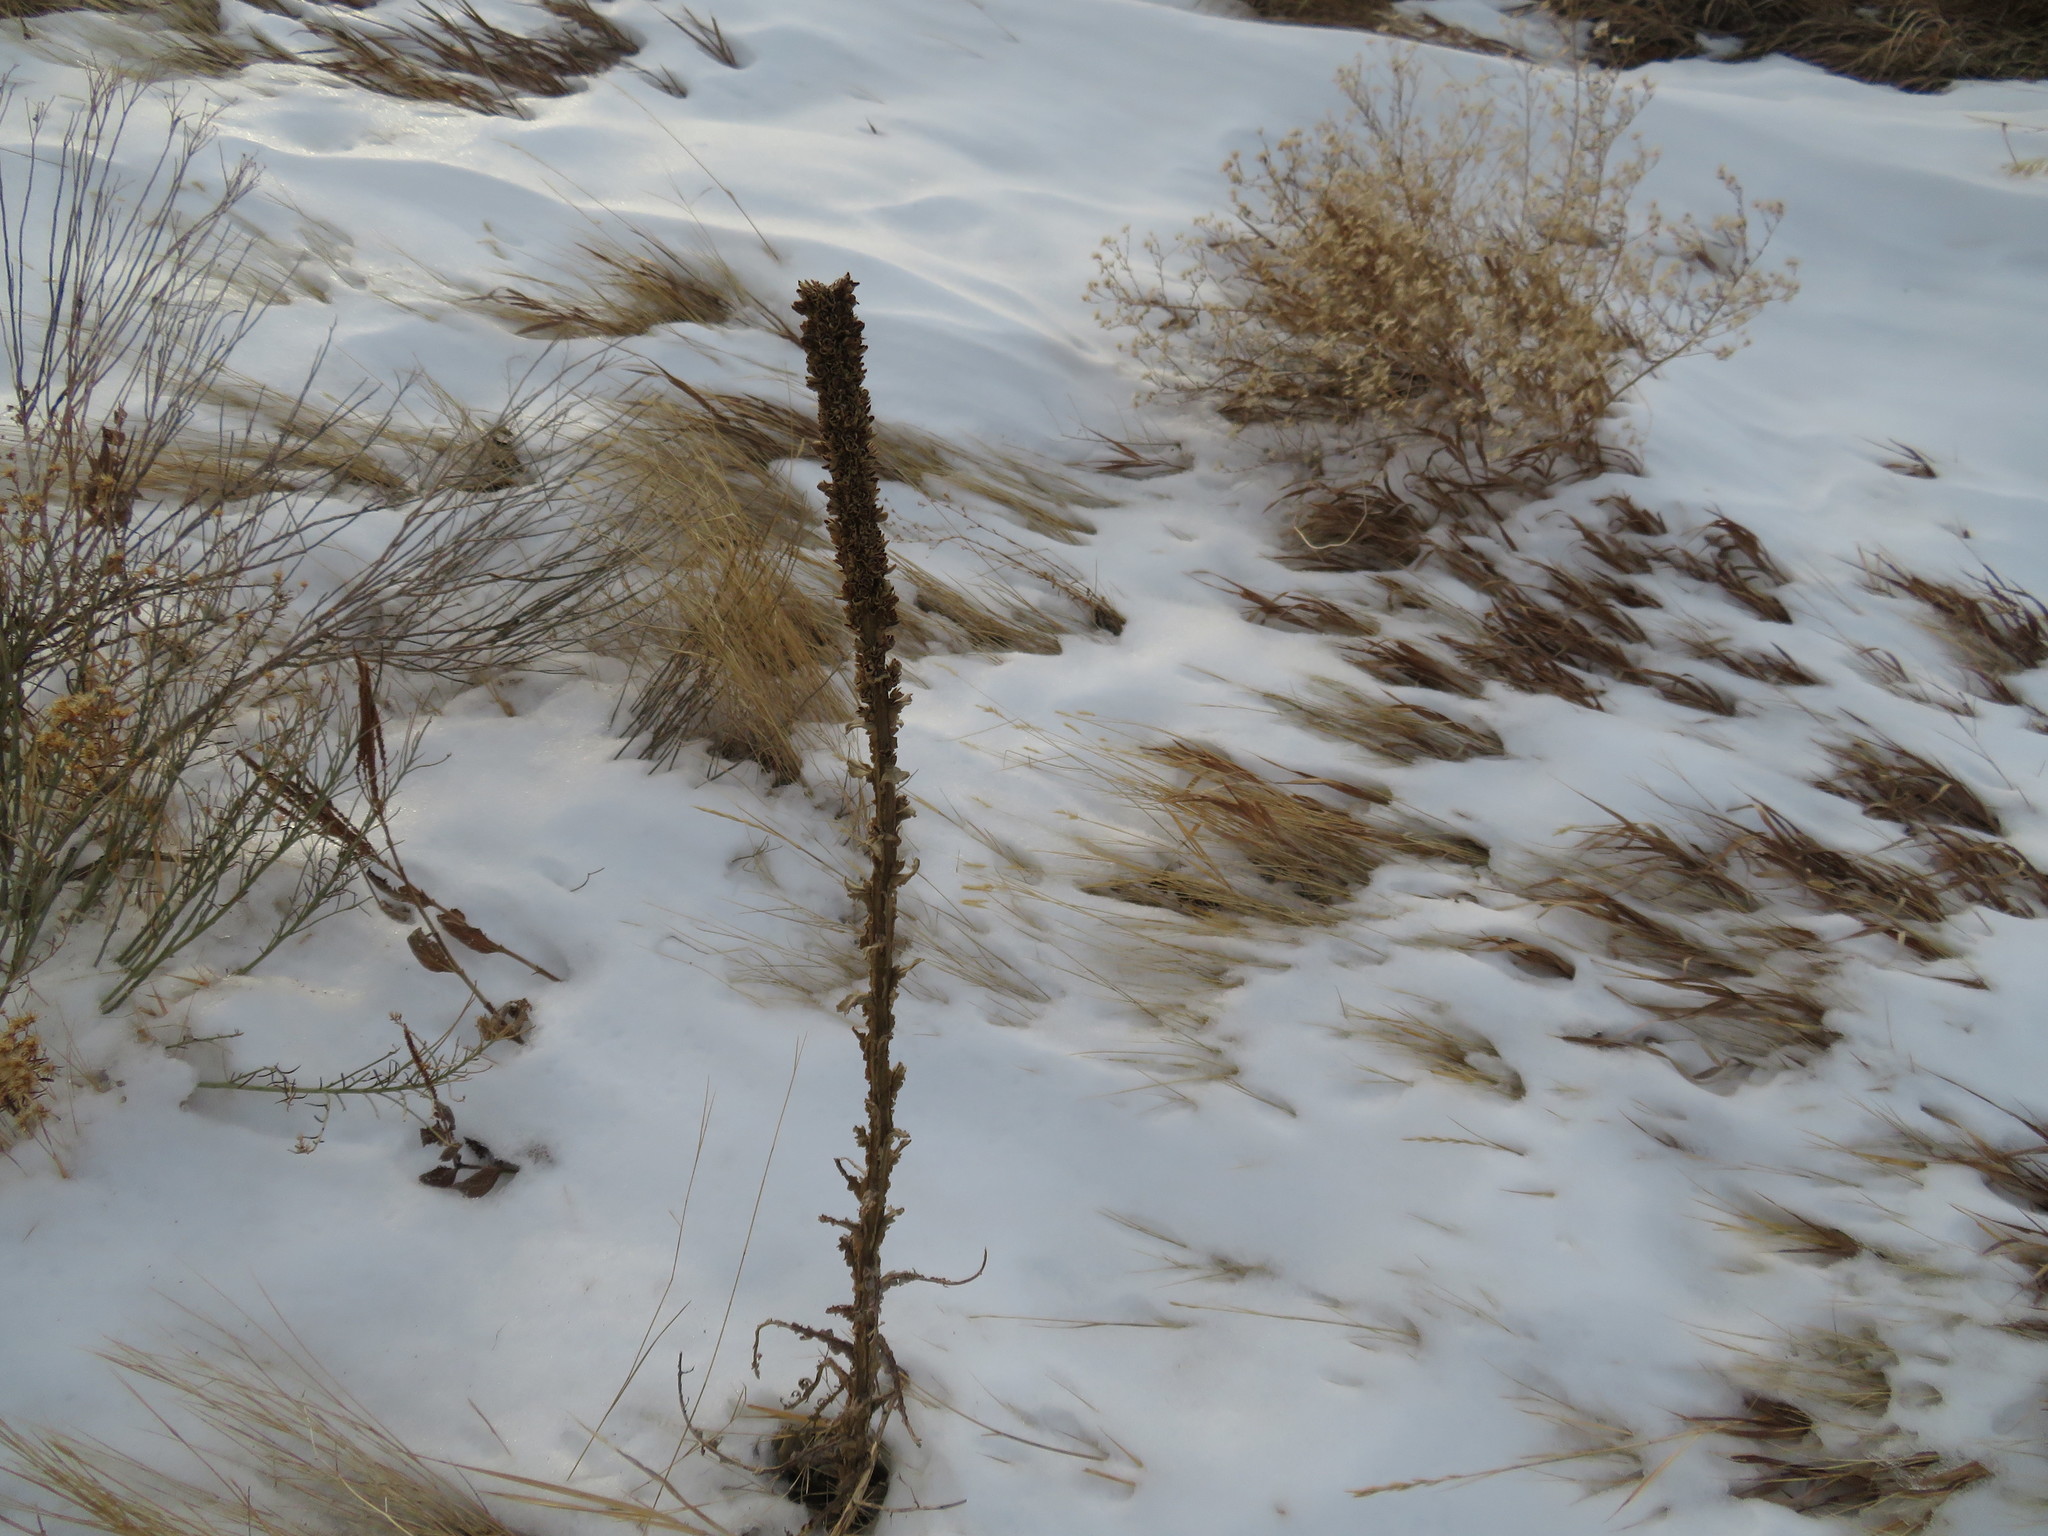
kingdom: Plantae
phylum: Tracheophyta
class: Magnoliopsida
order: Lamiales
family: Scrophulariaceae
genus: Verbascum
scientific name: Verbascum thapsus
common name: Common mullein
